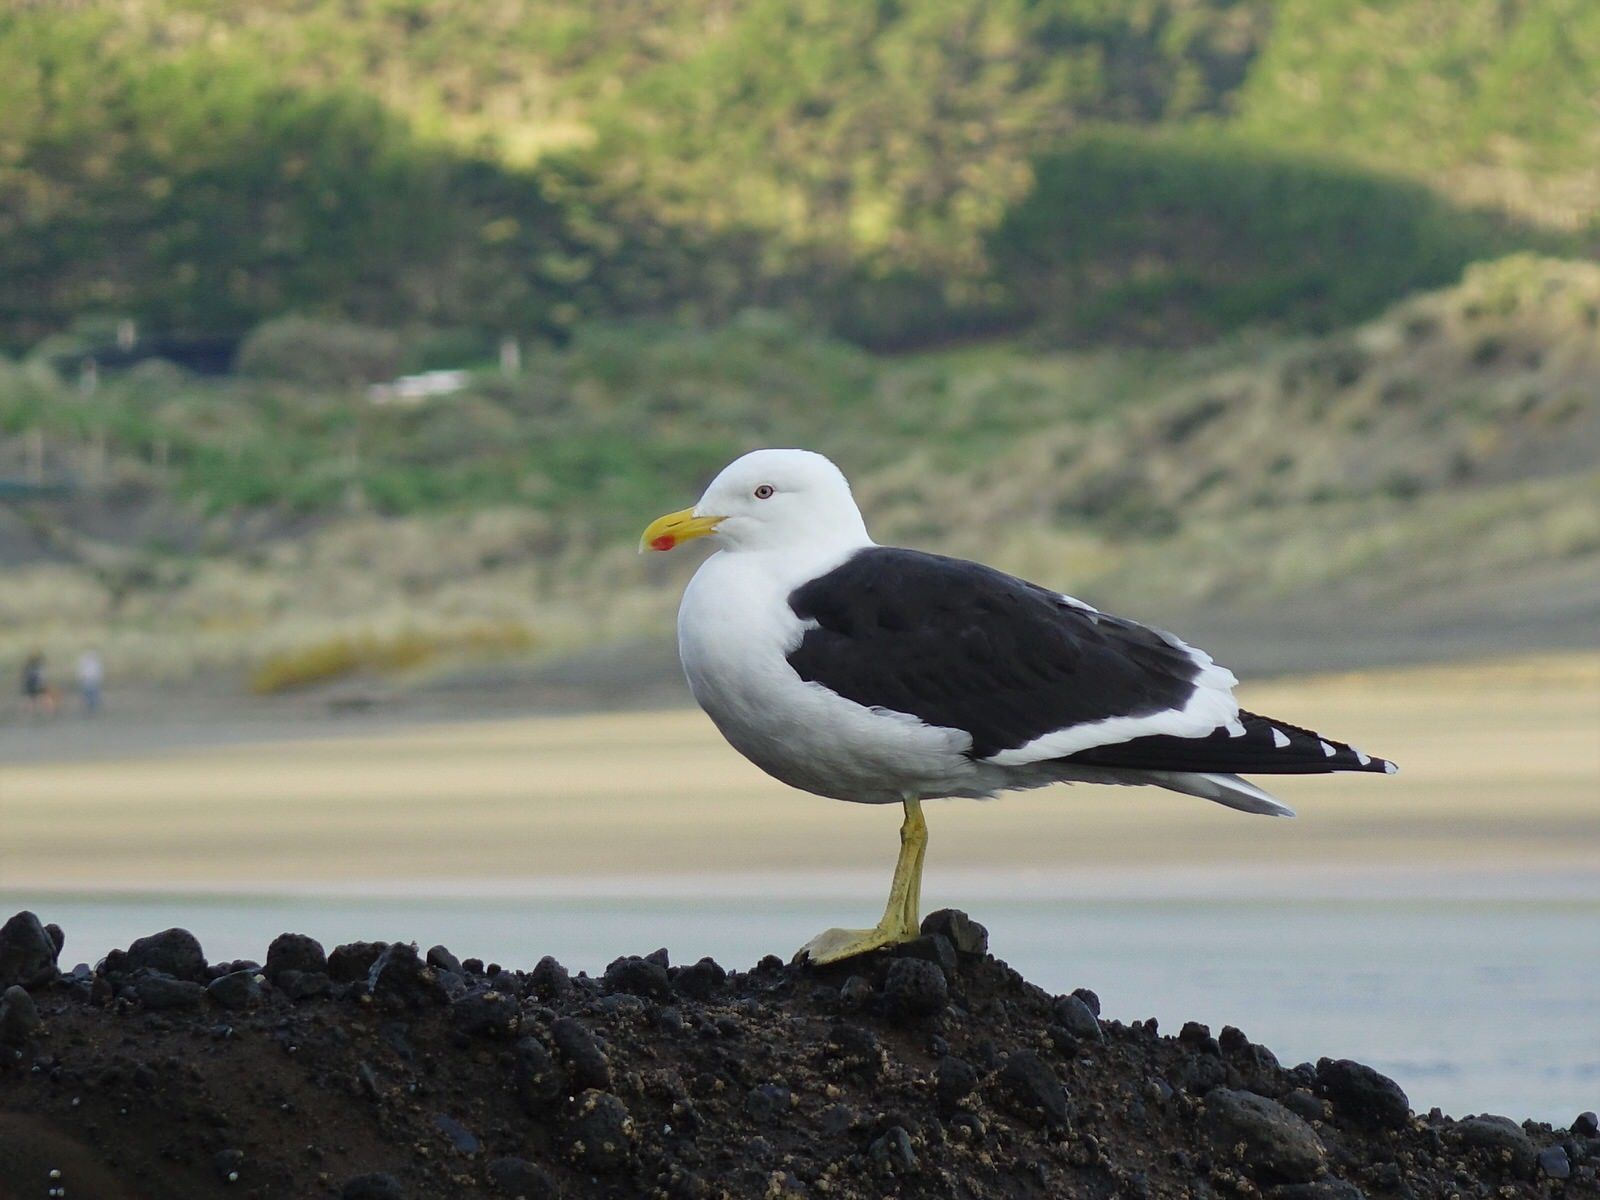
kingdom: Animalia
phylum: Chordata
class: Aves
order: Charadriiformes
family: Laridae
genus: Larus
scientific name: Larus dominicanus
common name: Kelp gull
